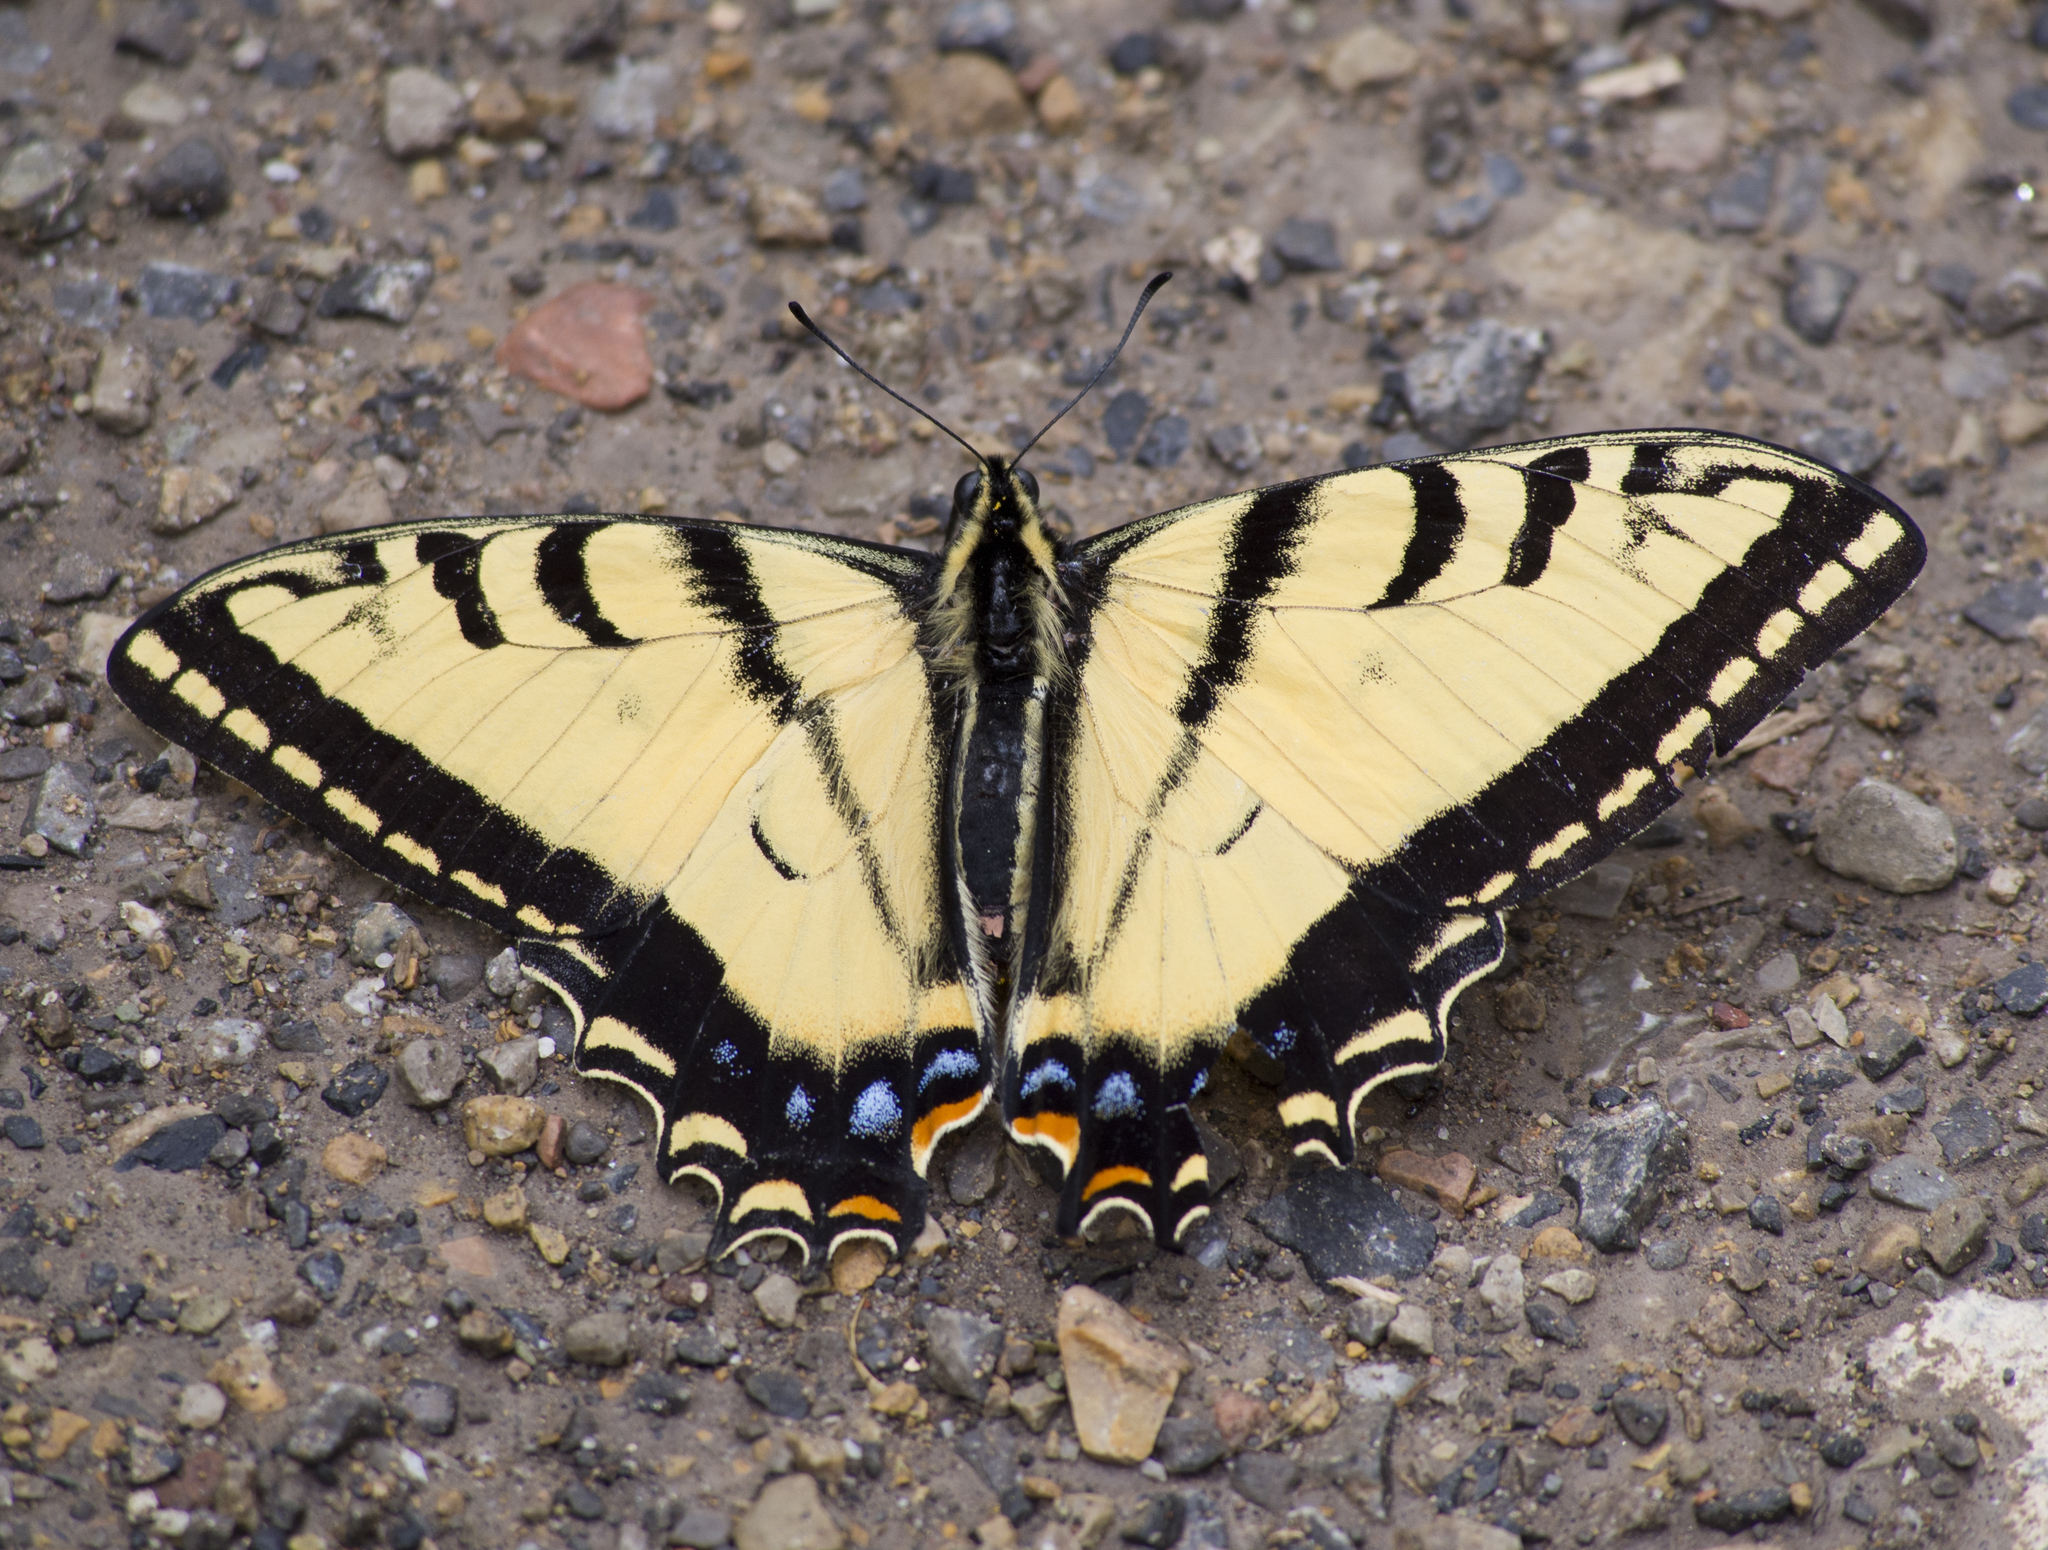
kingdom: Animalia
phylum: Arthropoda
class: Insecta
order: Lepidoptera
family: Papilionidae
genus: Papilio
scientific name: Papilio multicaudata
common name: Two-tailed tiger swallowtail
